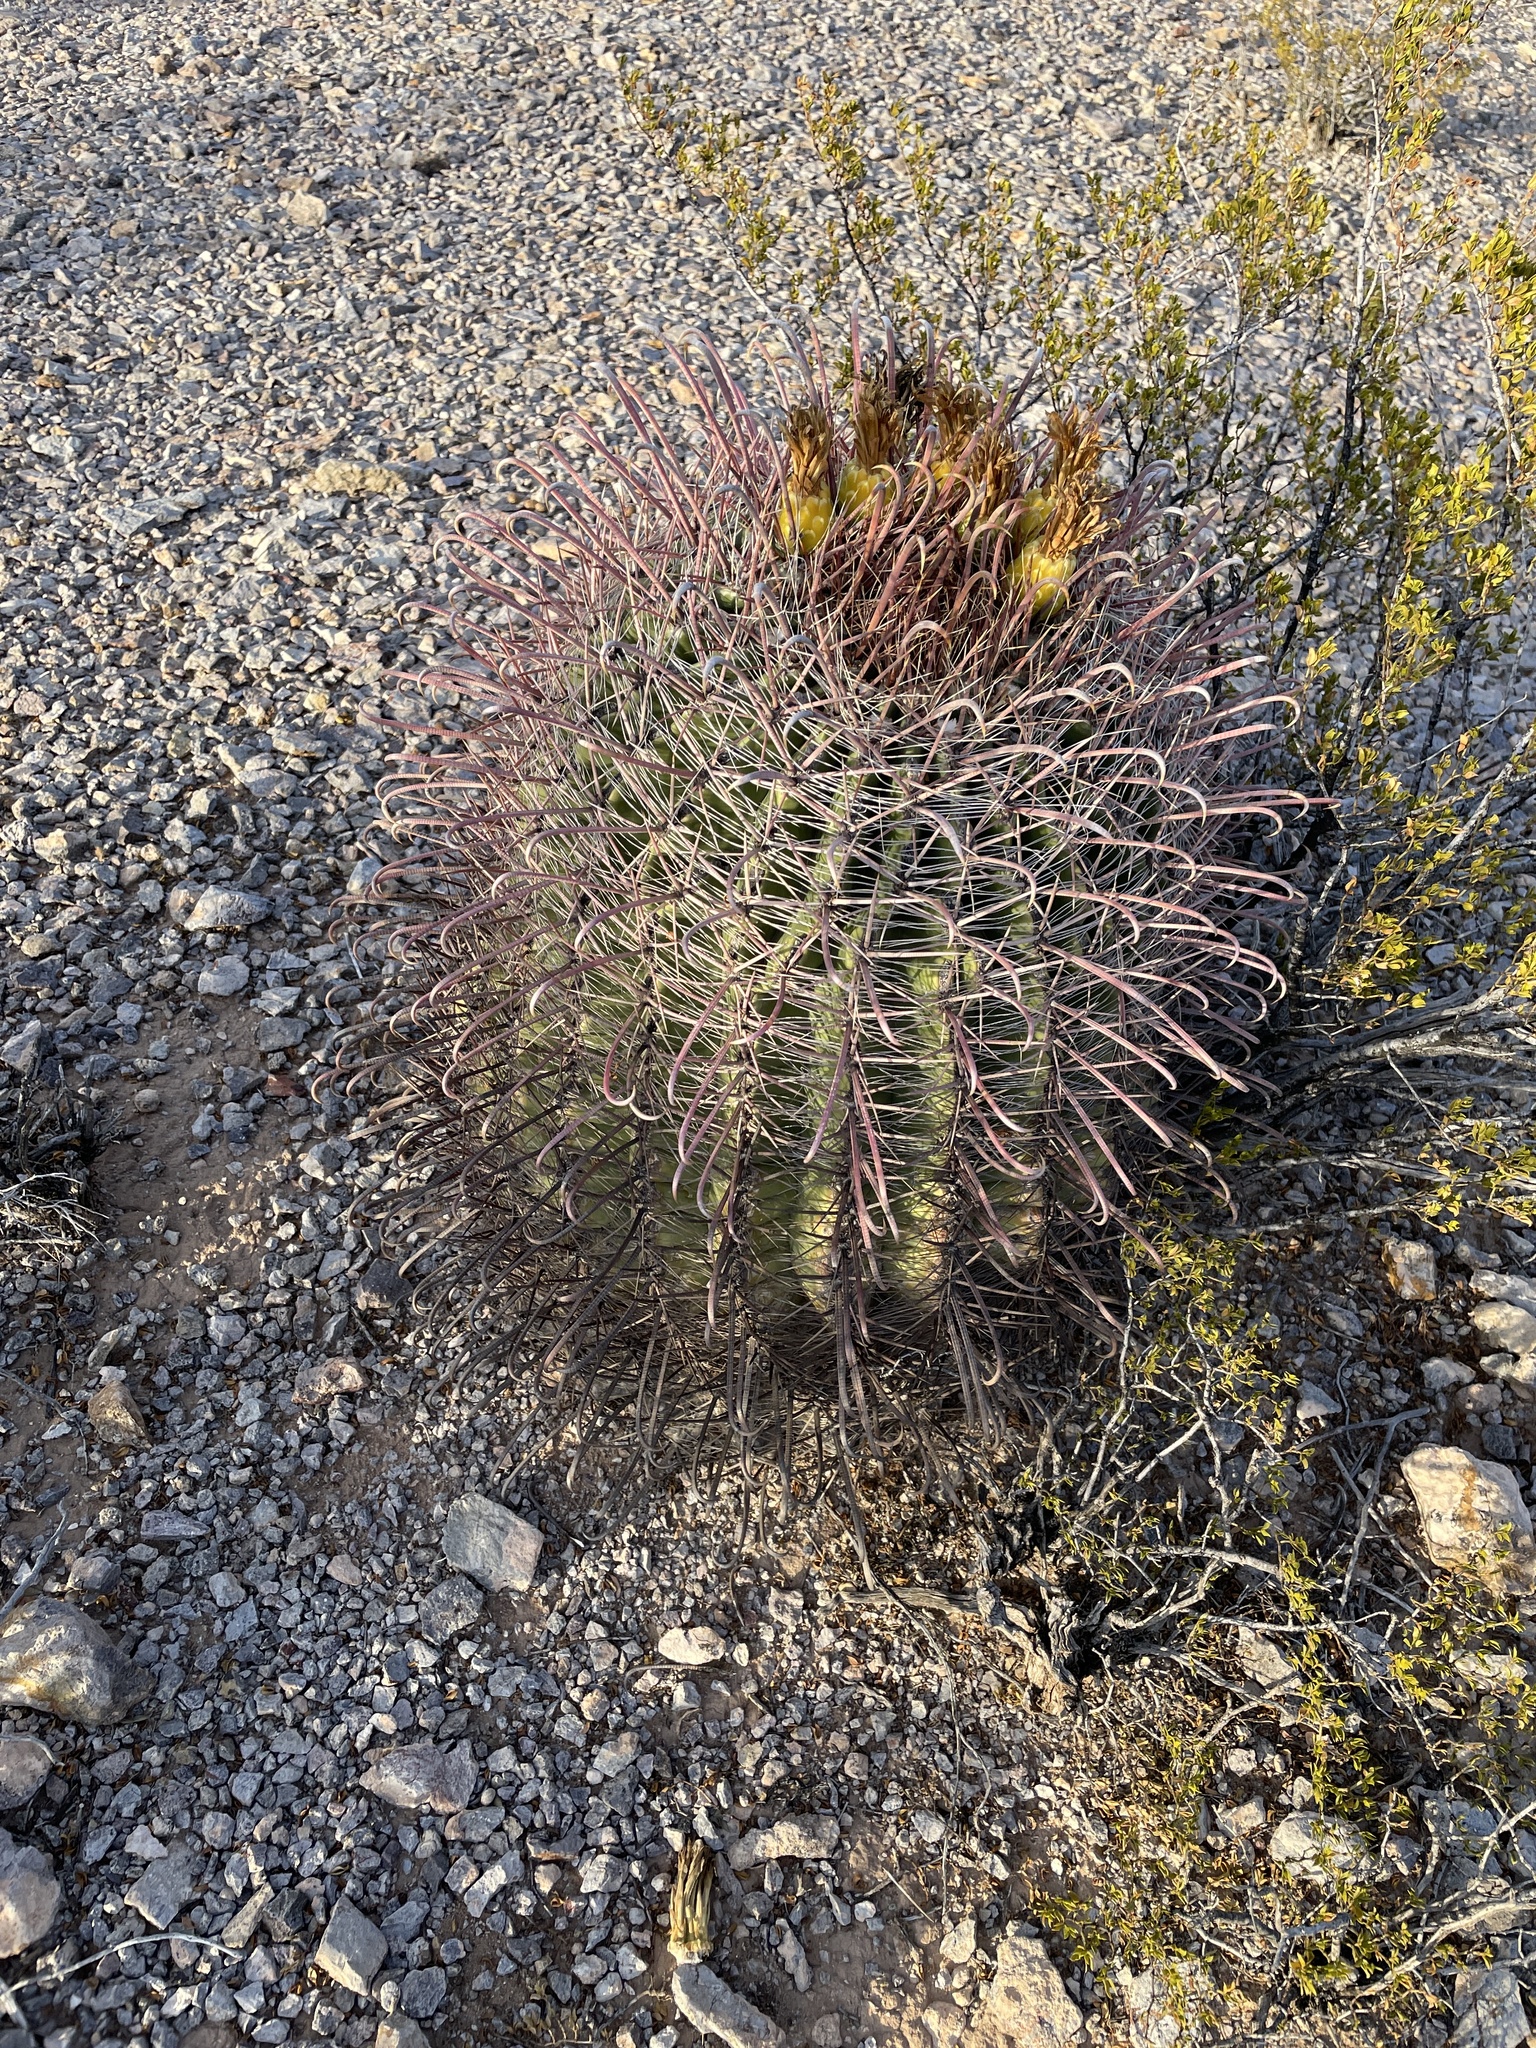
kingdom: Plantae
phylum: Tracheophyta
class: Magnoliopsida
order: Caryophyllales
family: Cactaceae
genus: Ferocactus
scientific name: Ferocactus wislizeni
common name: Candy barrel cactus
